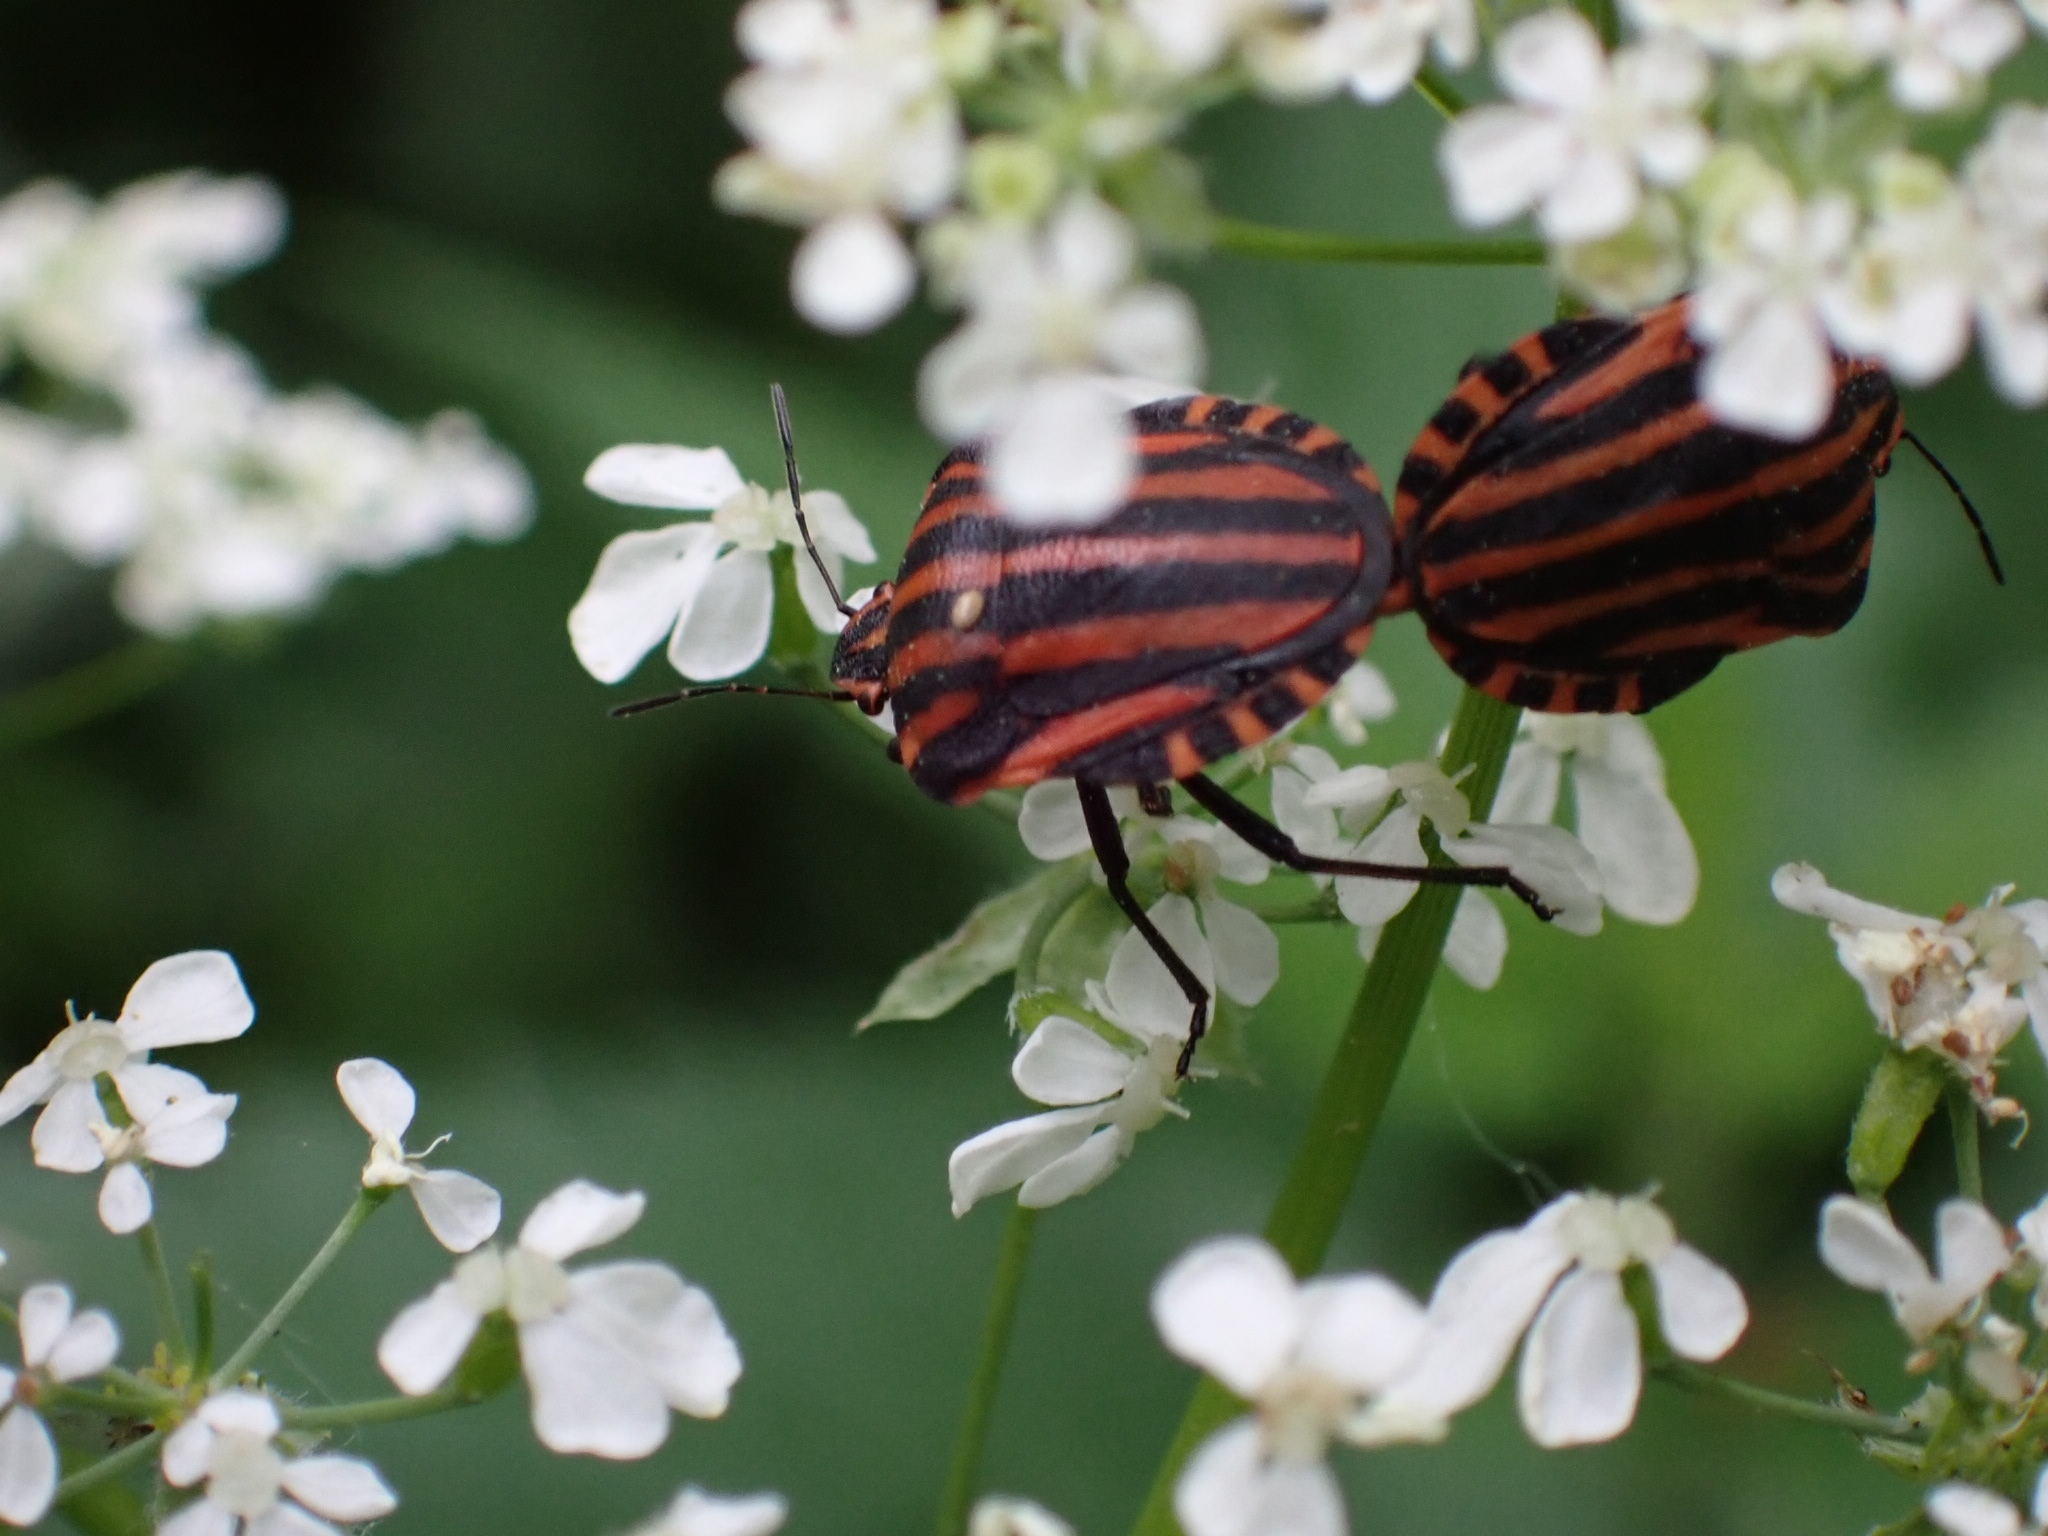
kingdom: Animalia
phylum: Arthropoda
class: Insecta
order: Hemiptera
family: Pentatomidae
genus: Graphosoma
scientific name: Graphosoma italicum
